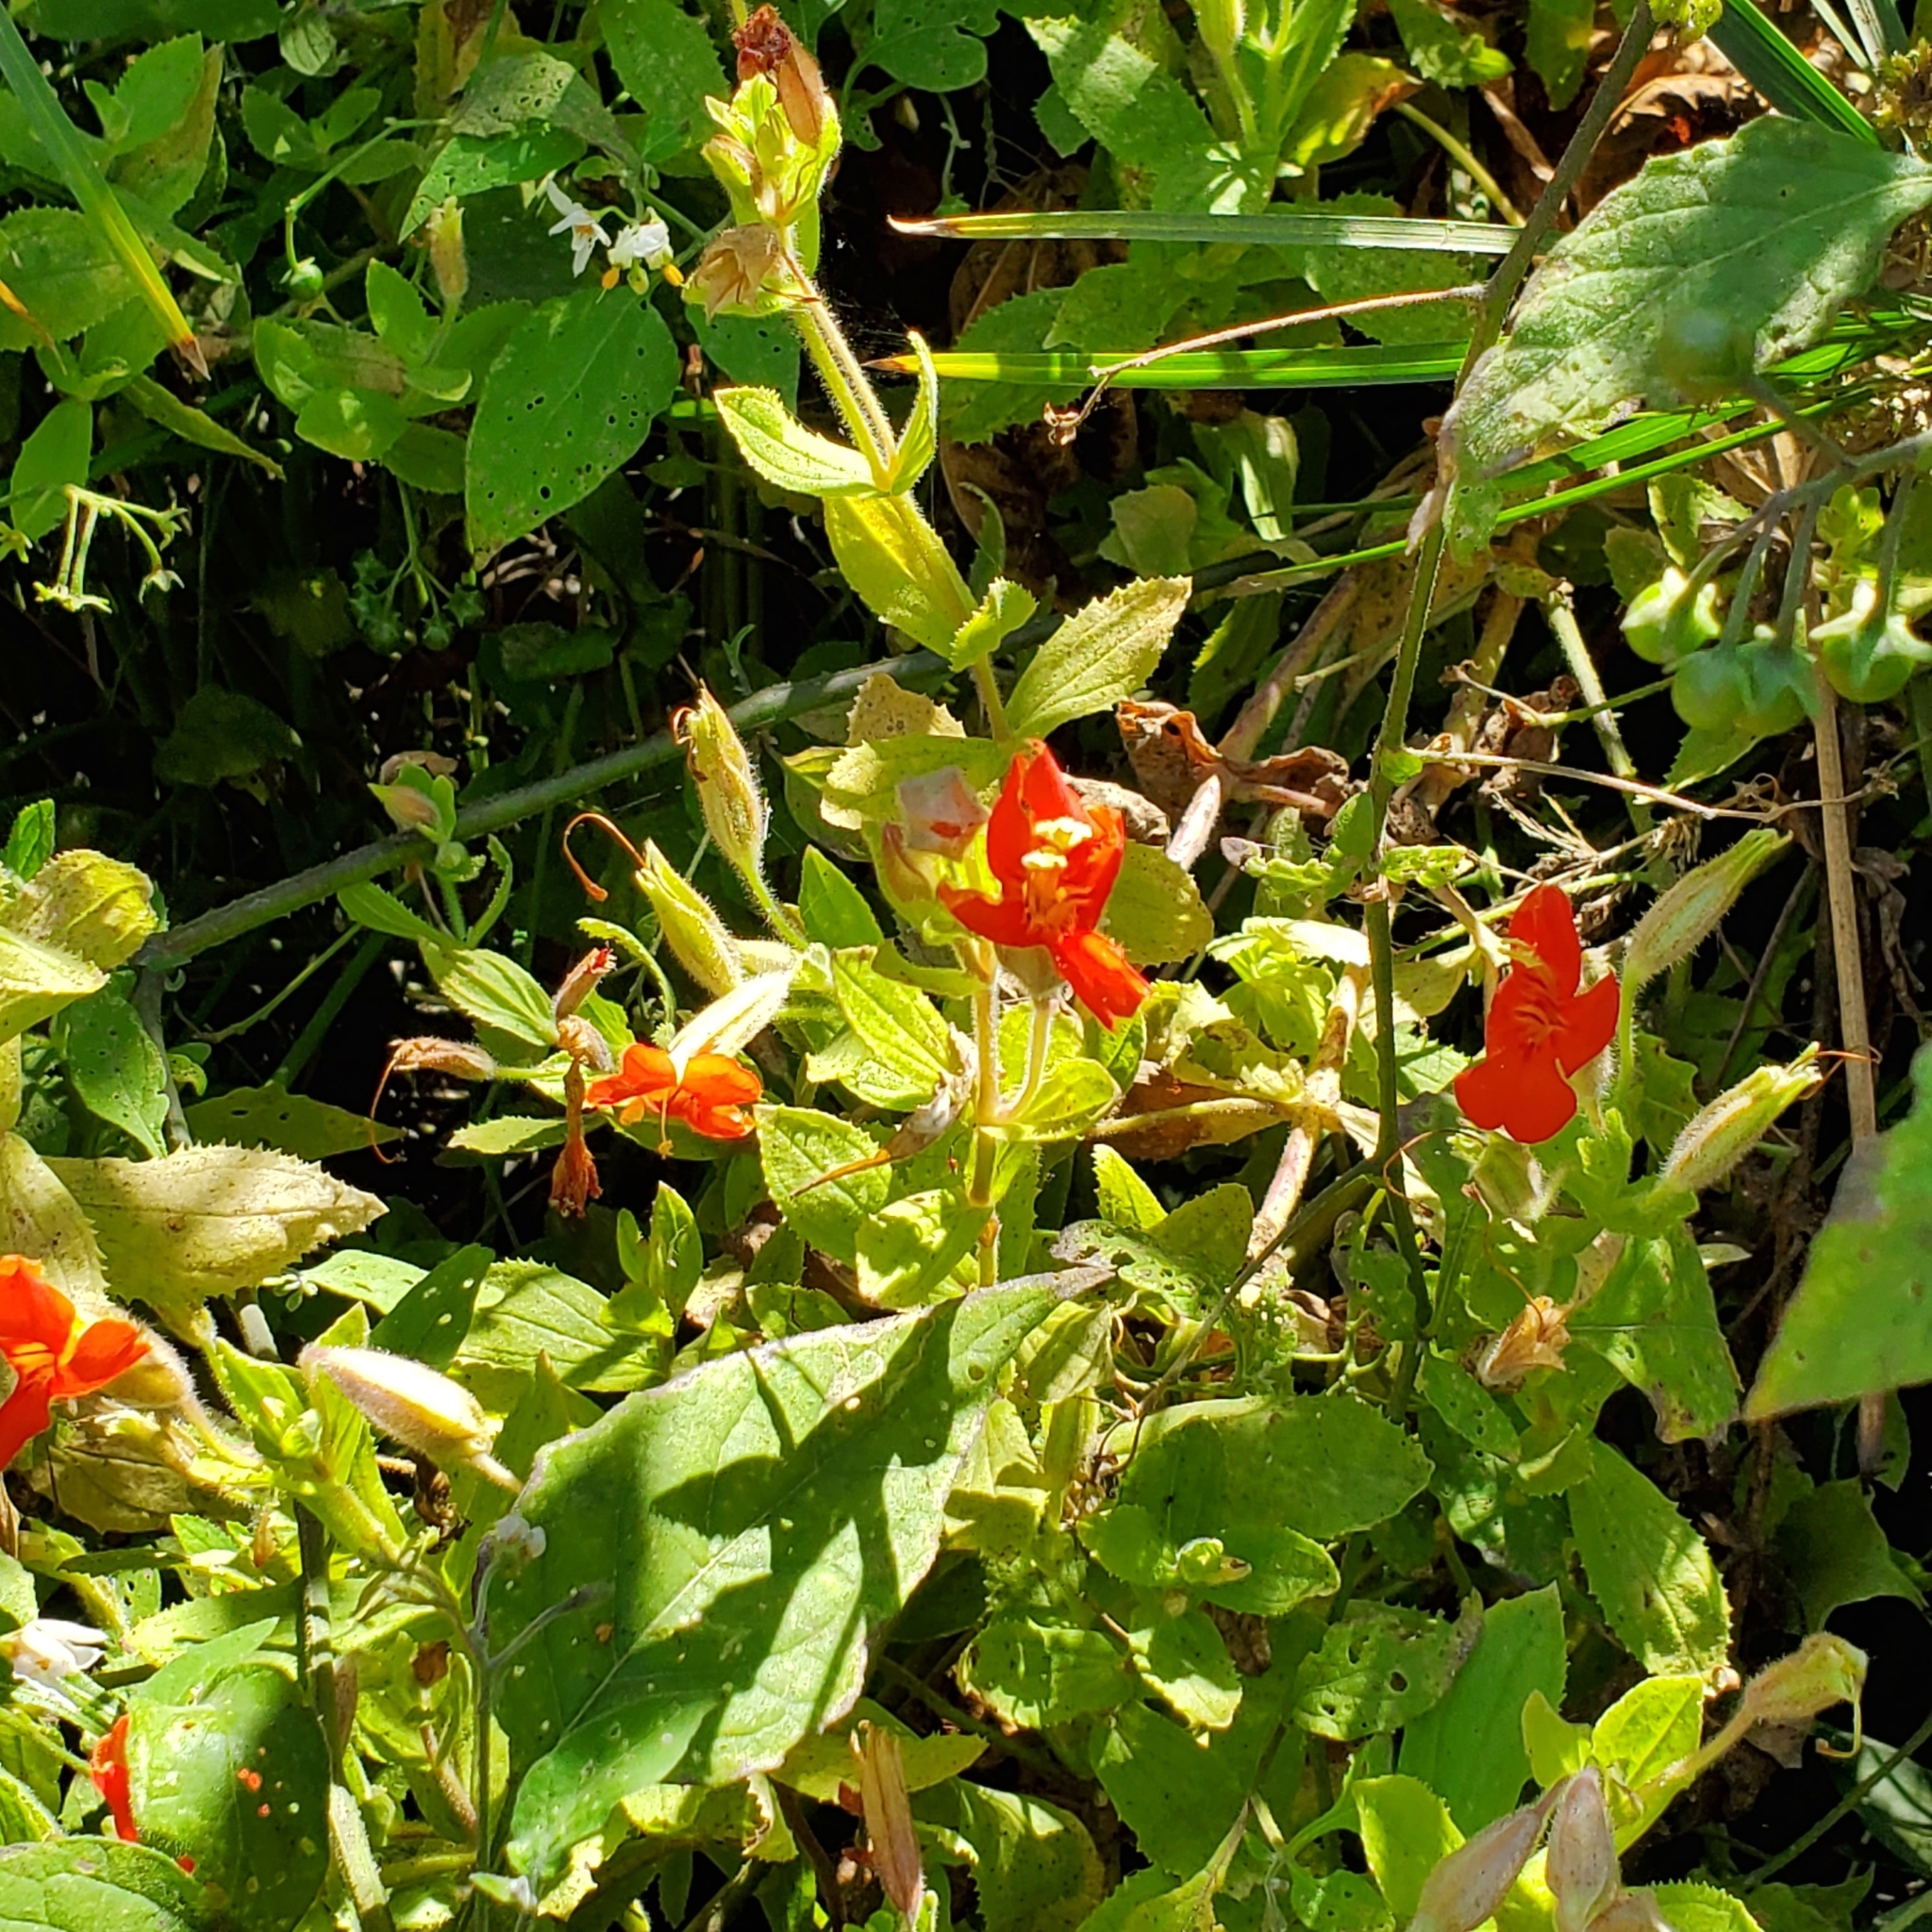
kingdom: Plantae
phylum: Tracheophyta
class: Magnoliopsida
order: Lamiales
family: Phrymaceae
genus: Erythranthe
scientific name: Erythranthe cardinalis
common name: Scarlet monkey-flower
